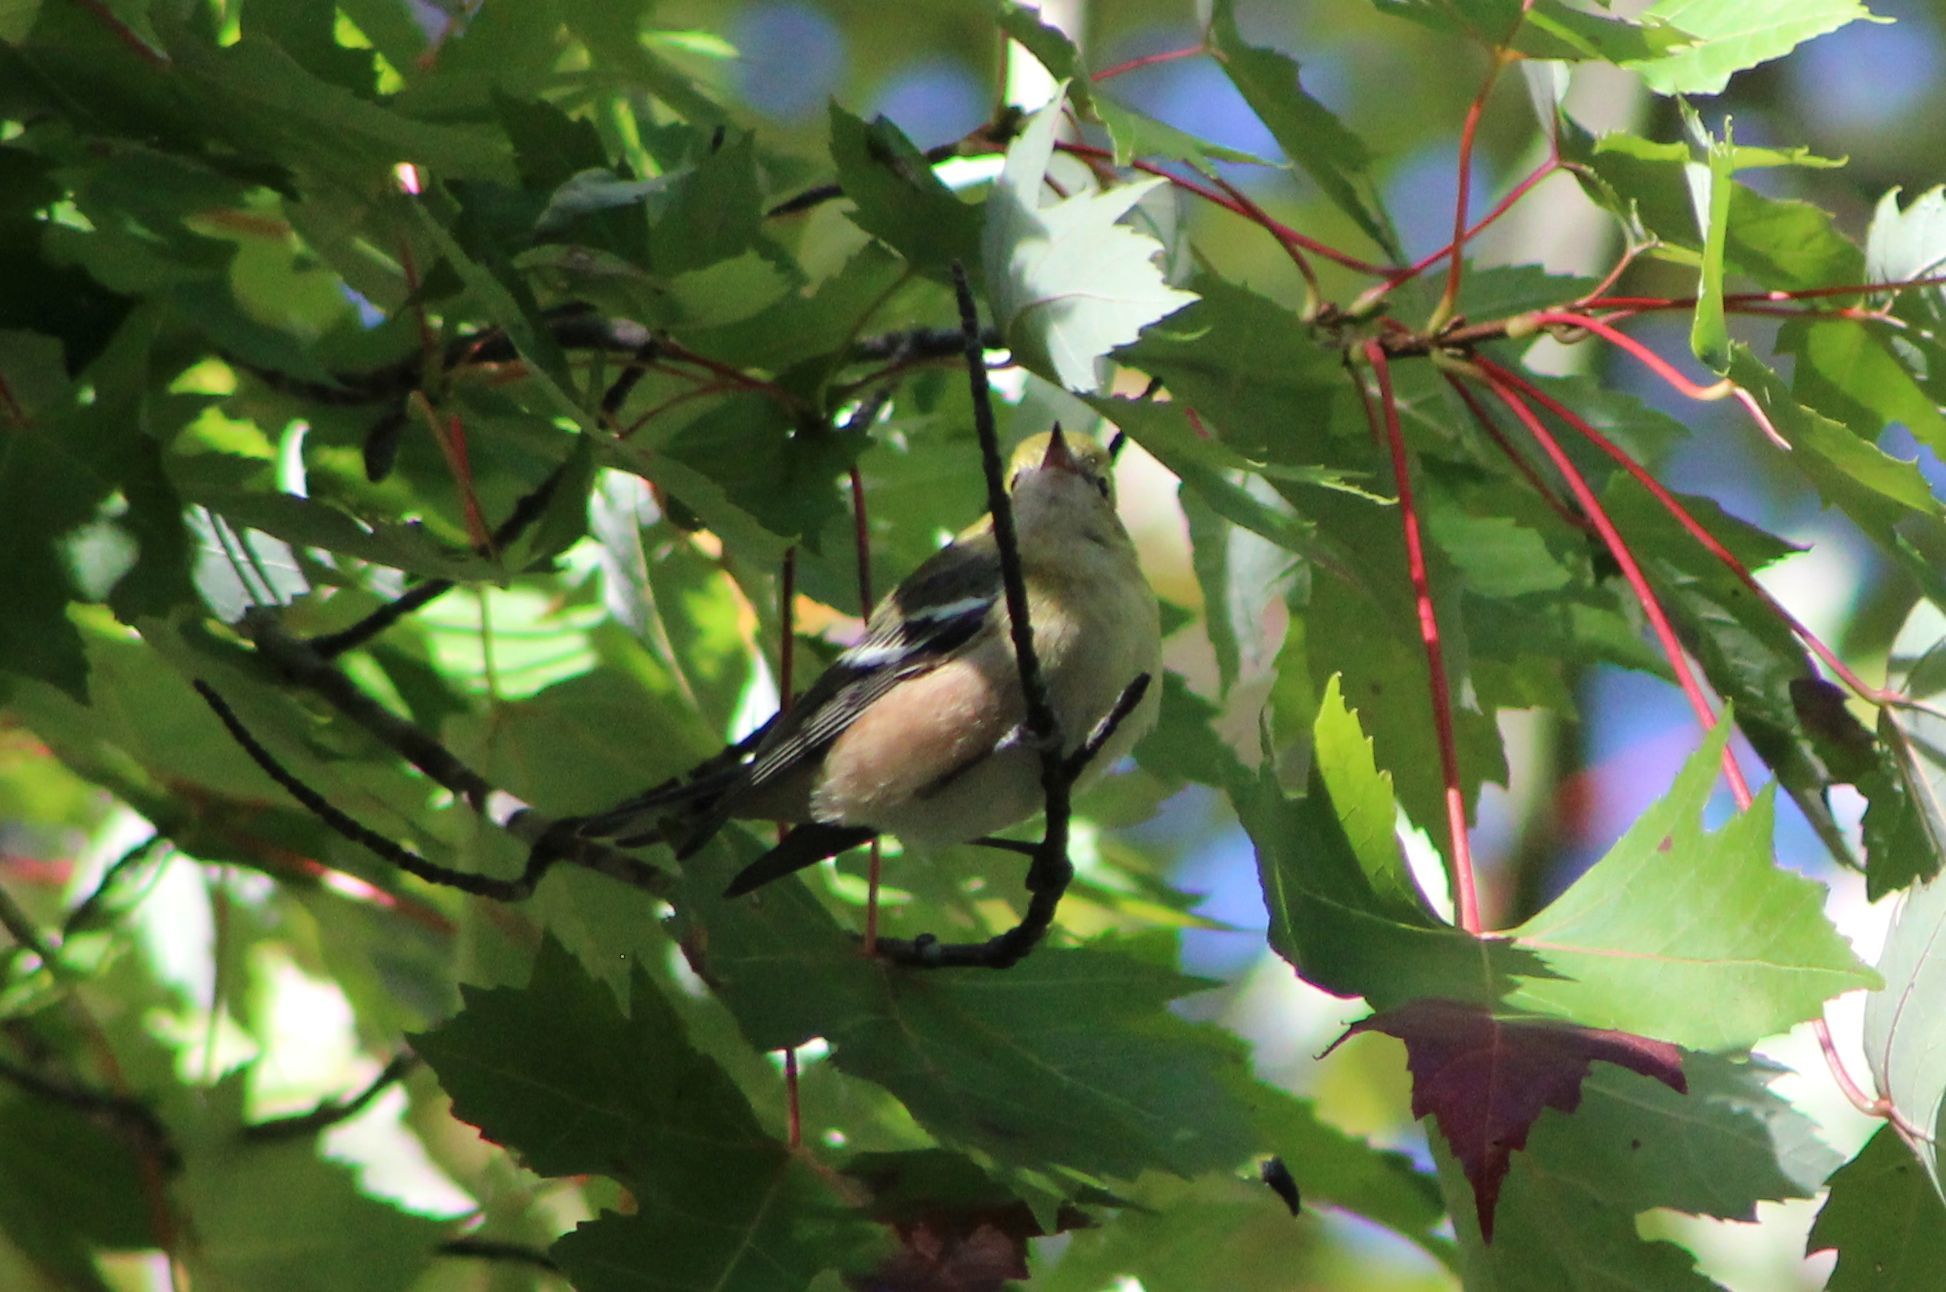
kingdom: Animalia
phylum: Chordata
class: Aves
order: Passeriformes
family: Parulidae
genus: Setophaga
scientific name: Setophaga pensylvanica
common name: Chestnut-sided warbler
